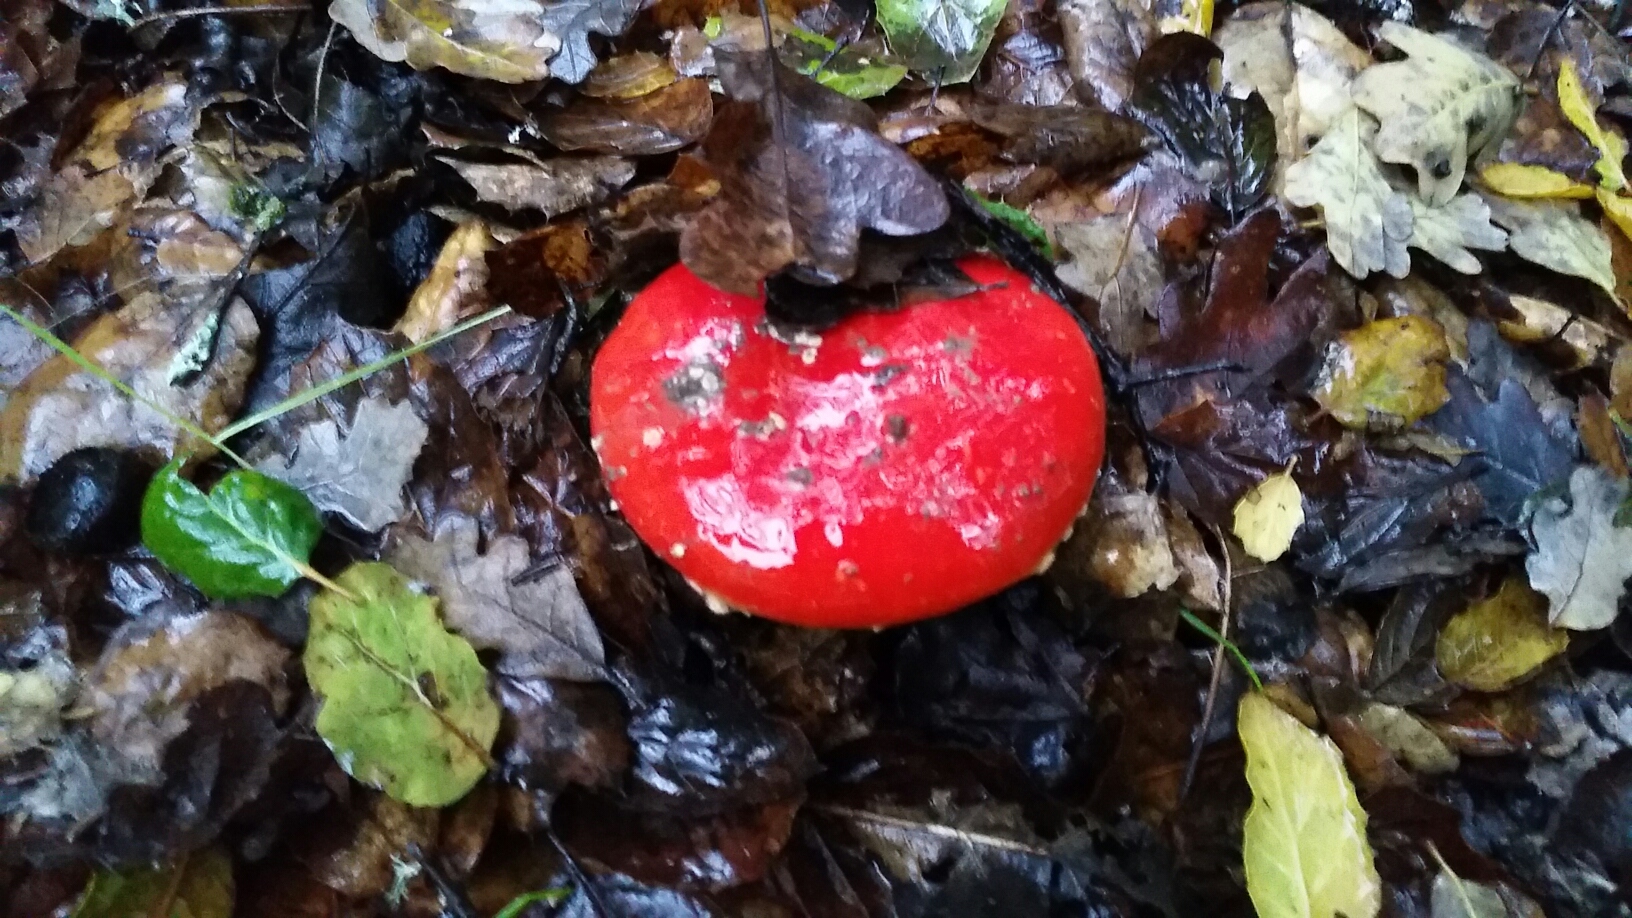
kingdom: Fungi
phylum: Basidiomycota
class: Agaricomycetes
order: Agaricales
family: Amanitaceae
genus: Amanita
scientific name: Amanita muscaria
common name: Fly agaric
